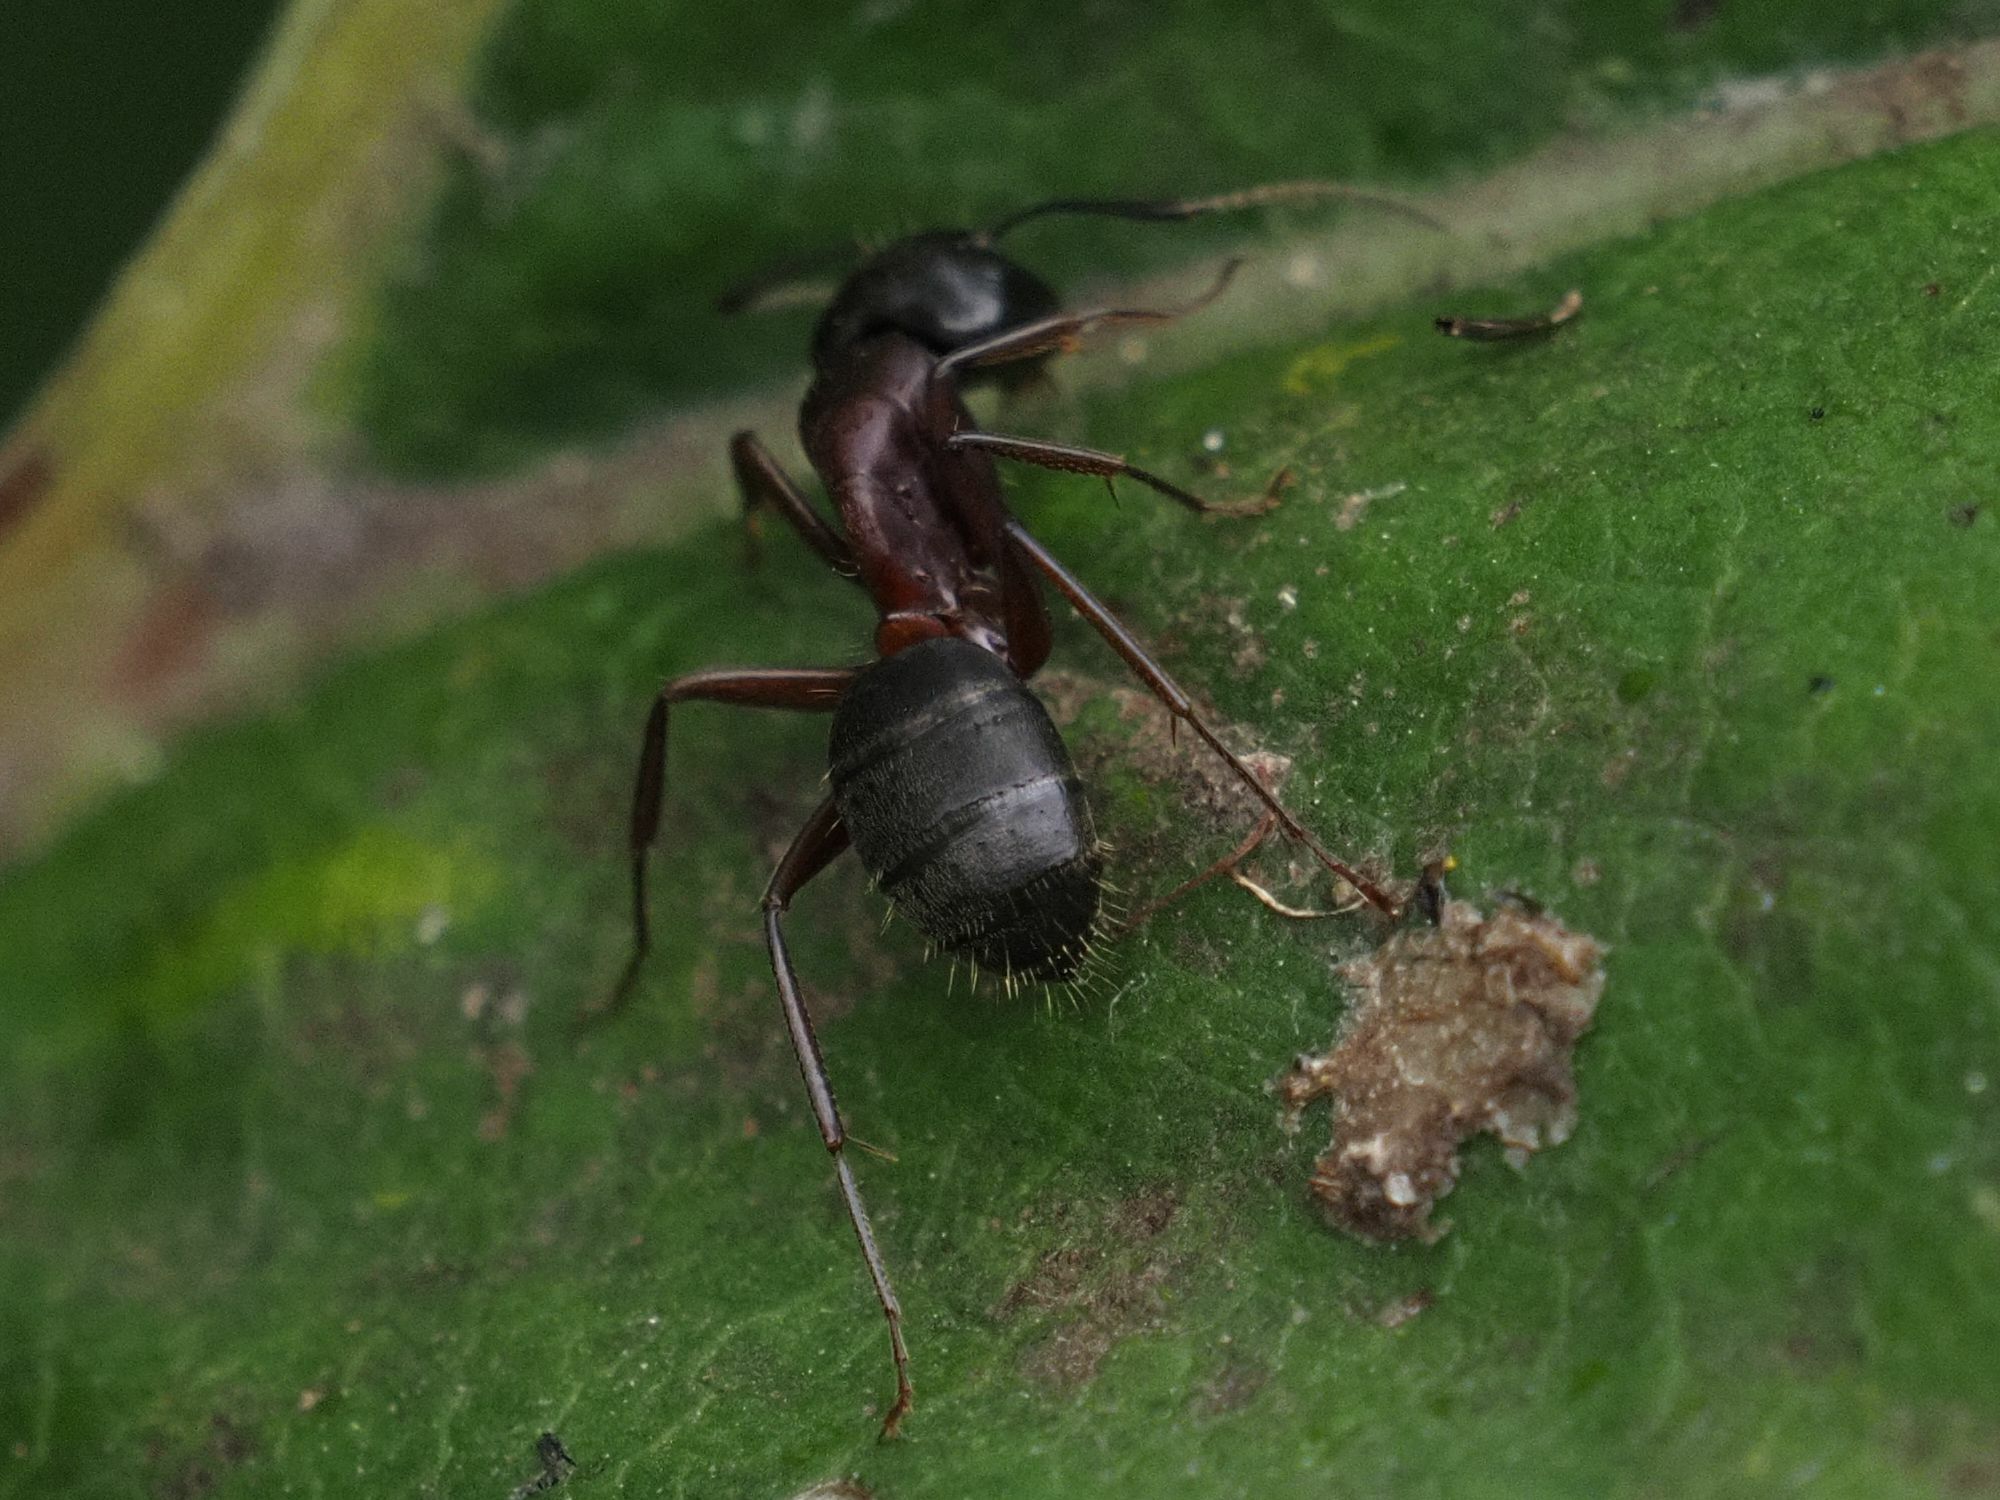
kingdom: Animalia
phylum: Arthropoda
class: Insecta
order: Hymenoptera
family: Formicidae
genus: Camponotus
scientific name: Camponotus herculeanus
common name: Hercules ant
